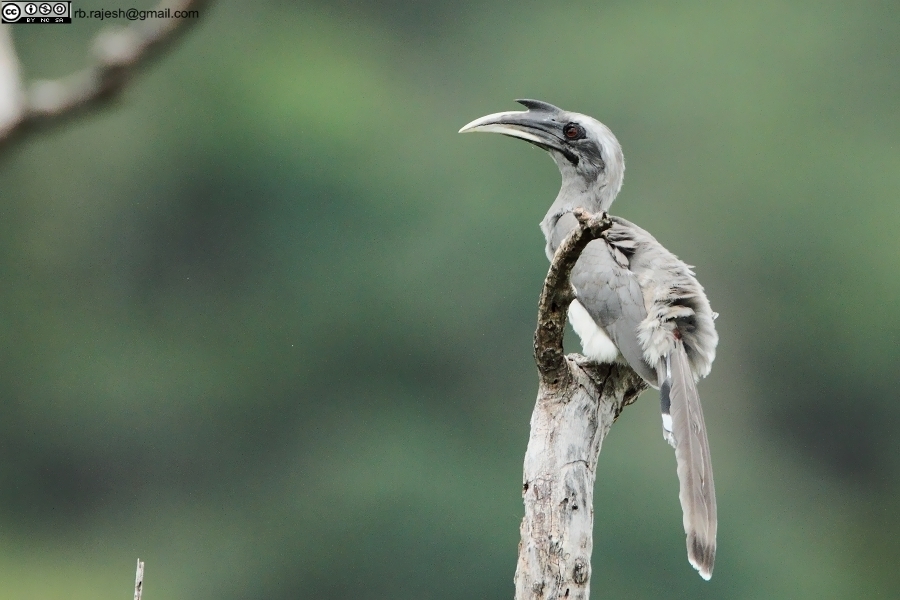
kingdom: Animalia
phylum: Chordata
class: Aves
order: Bucerotiformes
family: Bucerotidae
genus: Ocyceros
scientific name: Ocyceros birostris
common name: Indian grey hornbill
